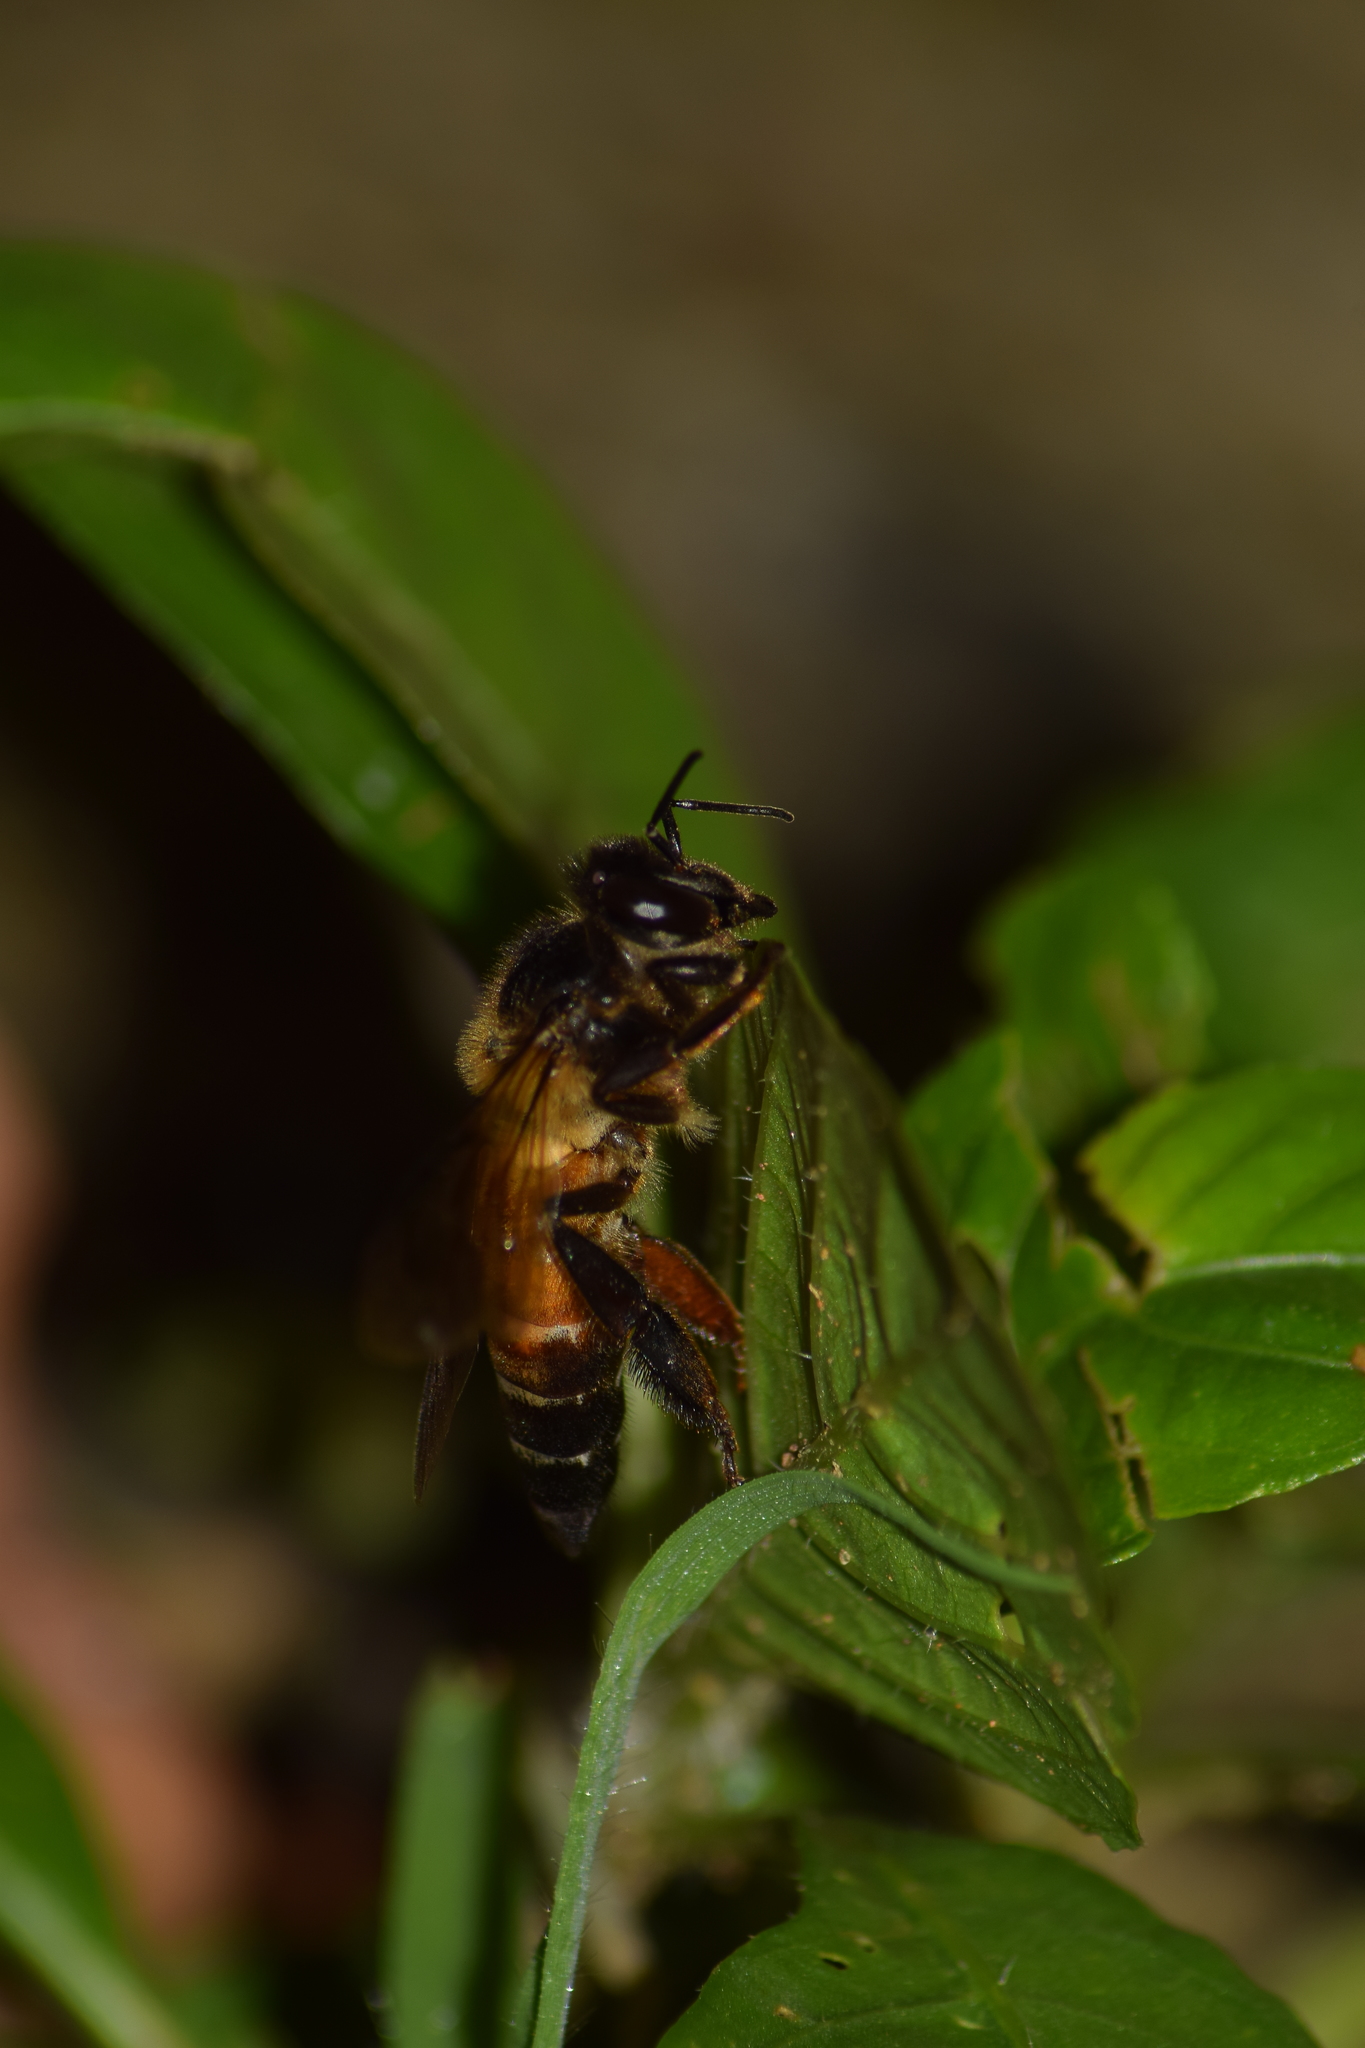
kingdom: Animalia
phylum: Arthropoda
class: Insecta
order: Hymenoptera
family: Apidae
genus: Apis
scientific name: Apis dorsata
